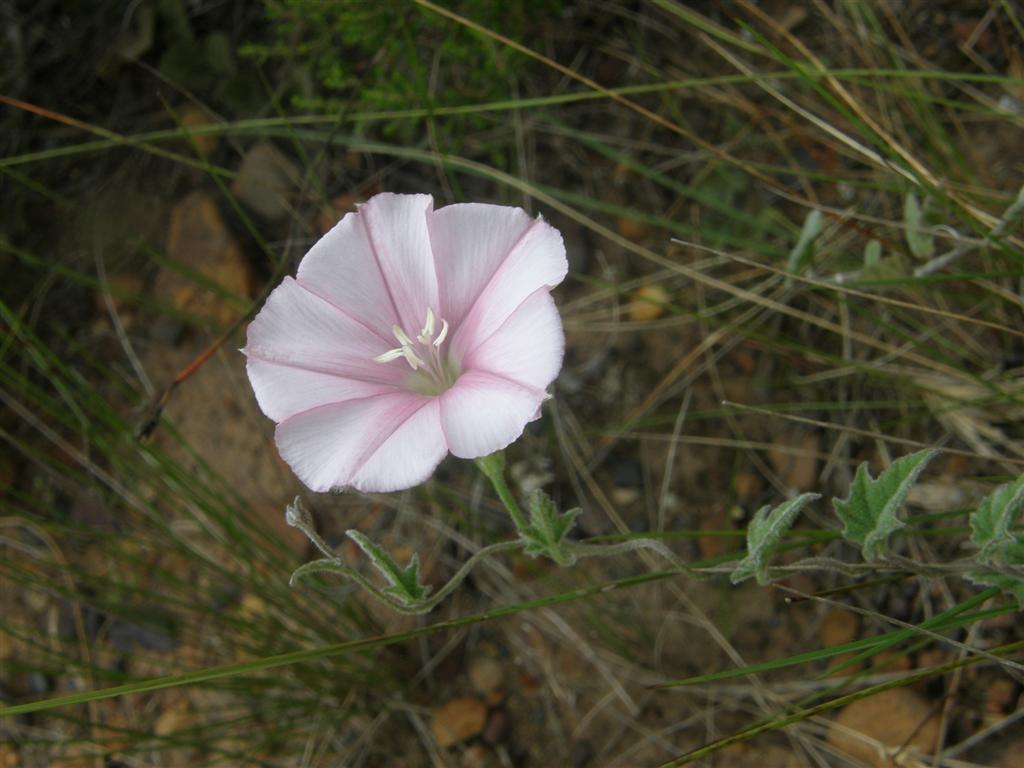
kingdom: Plantae
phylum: Tracheophyta
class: Magnoliopsida
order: Solanales
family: Convolvulaceae
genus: Convolvulus
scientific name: Convolvulus capensis
